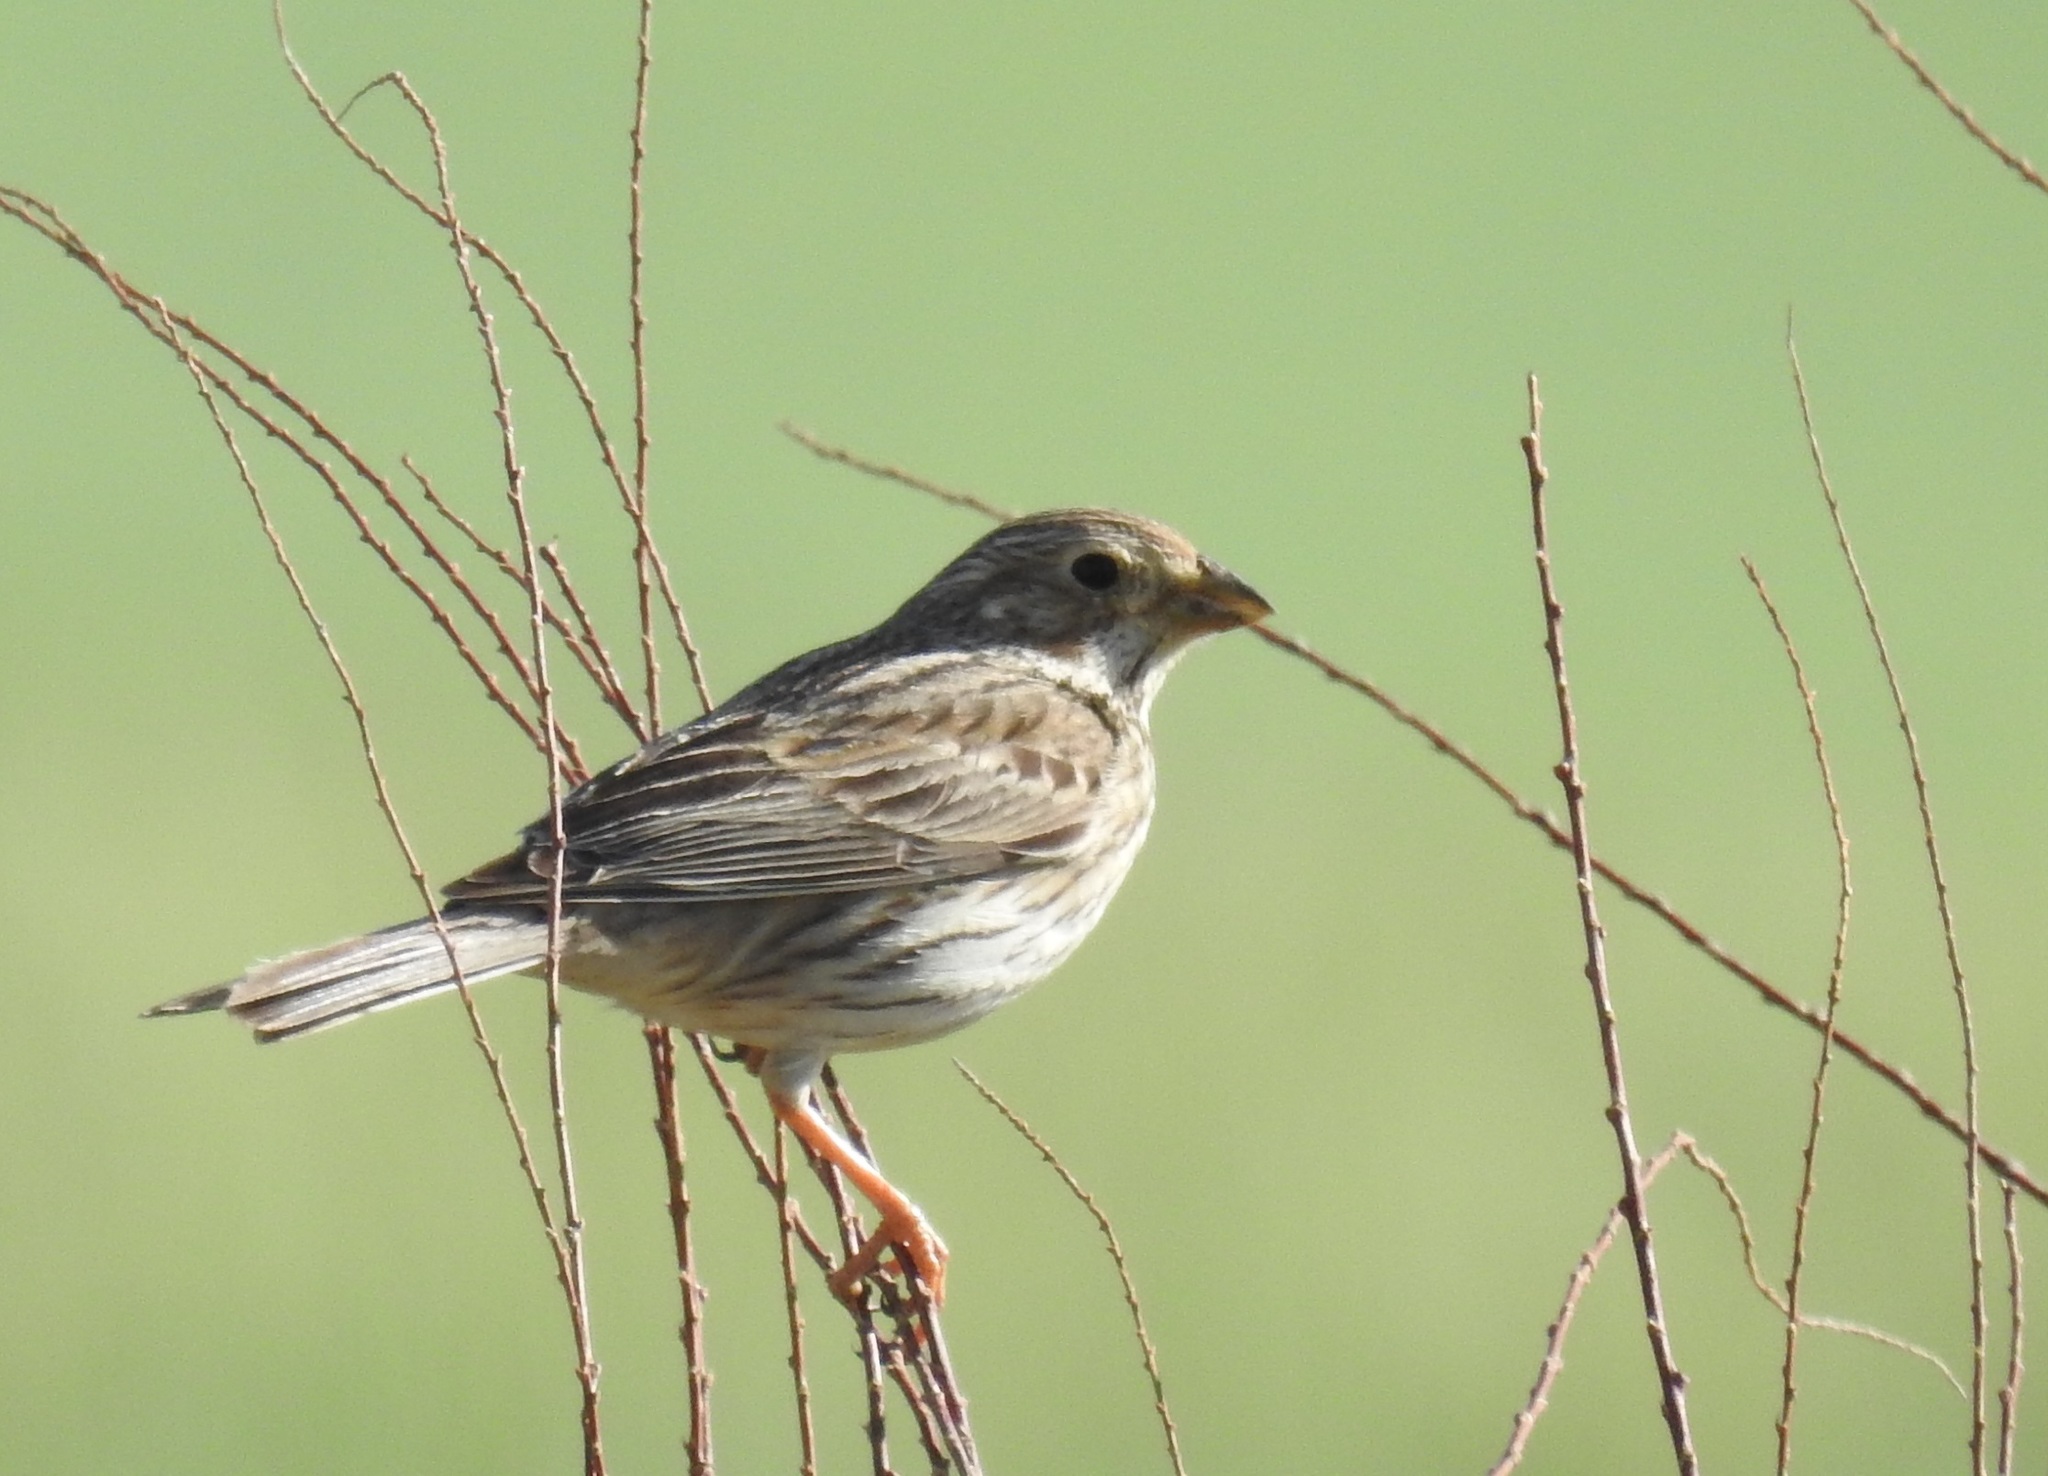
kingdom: Animalia
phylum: Chordata
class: Aves
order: Passeriformes
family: Emberizidae
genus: Emberiza
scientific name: Emberiza calandra
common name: Corn bunting
